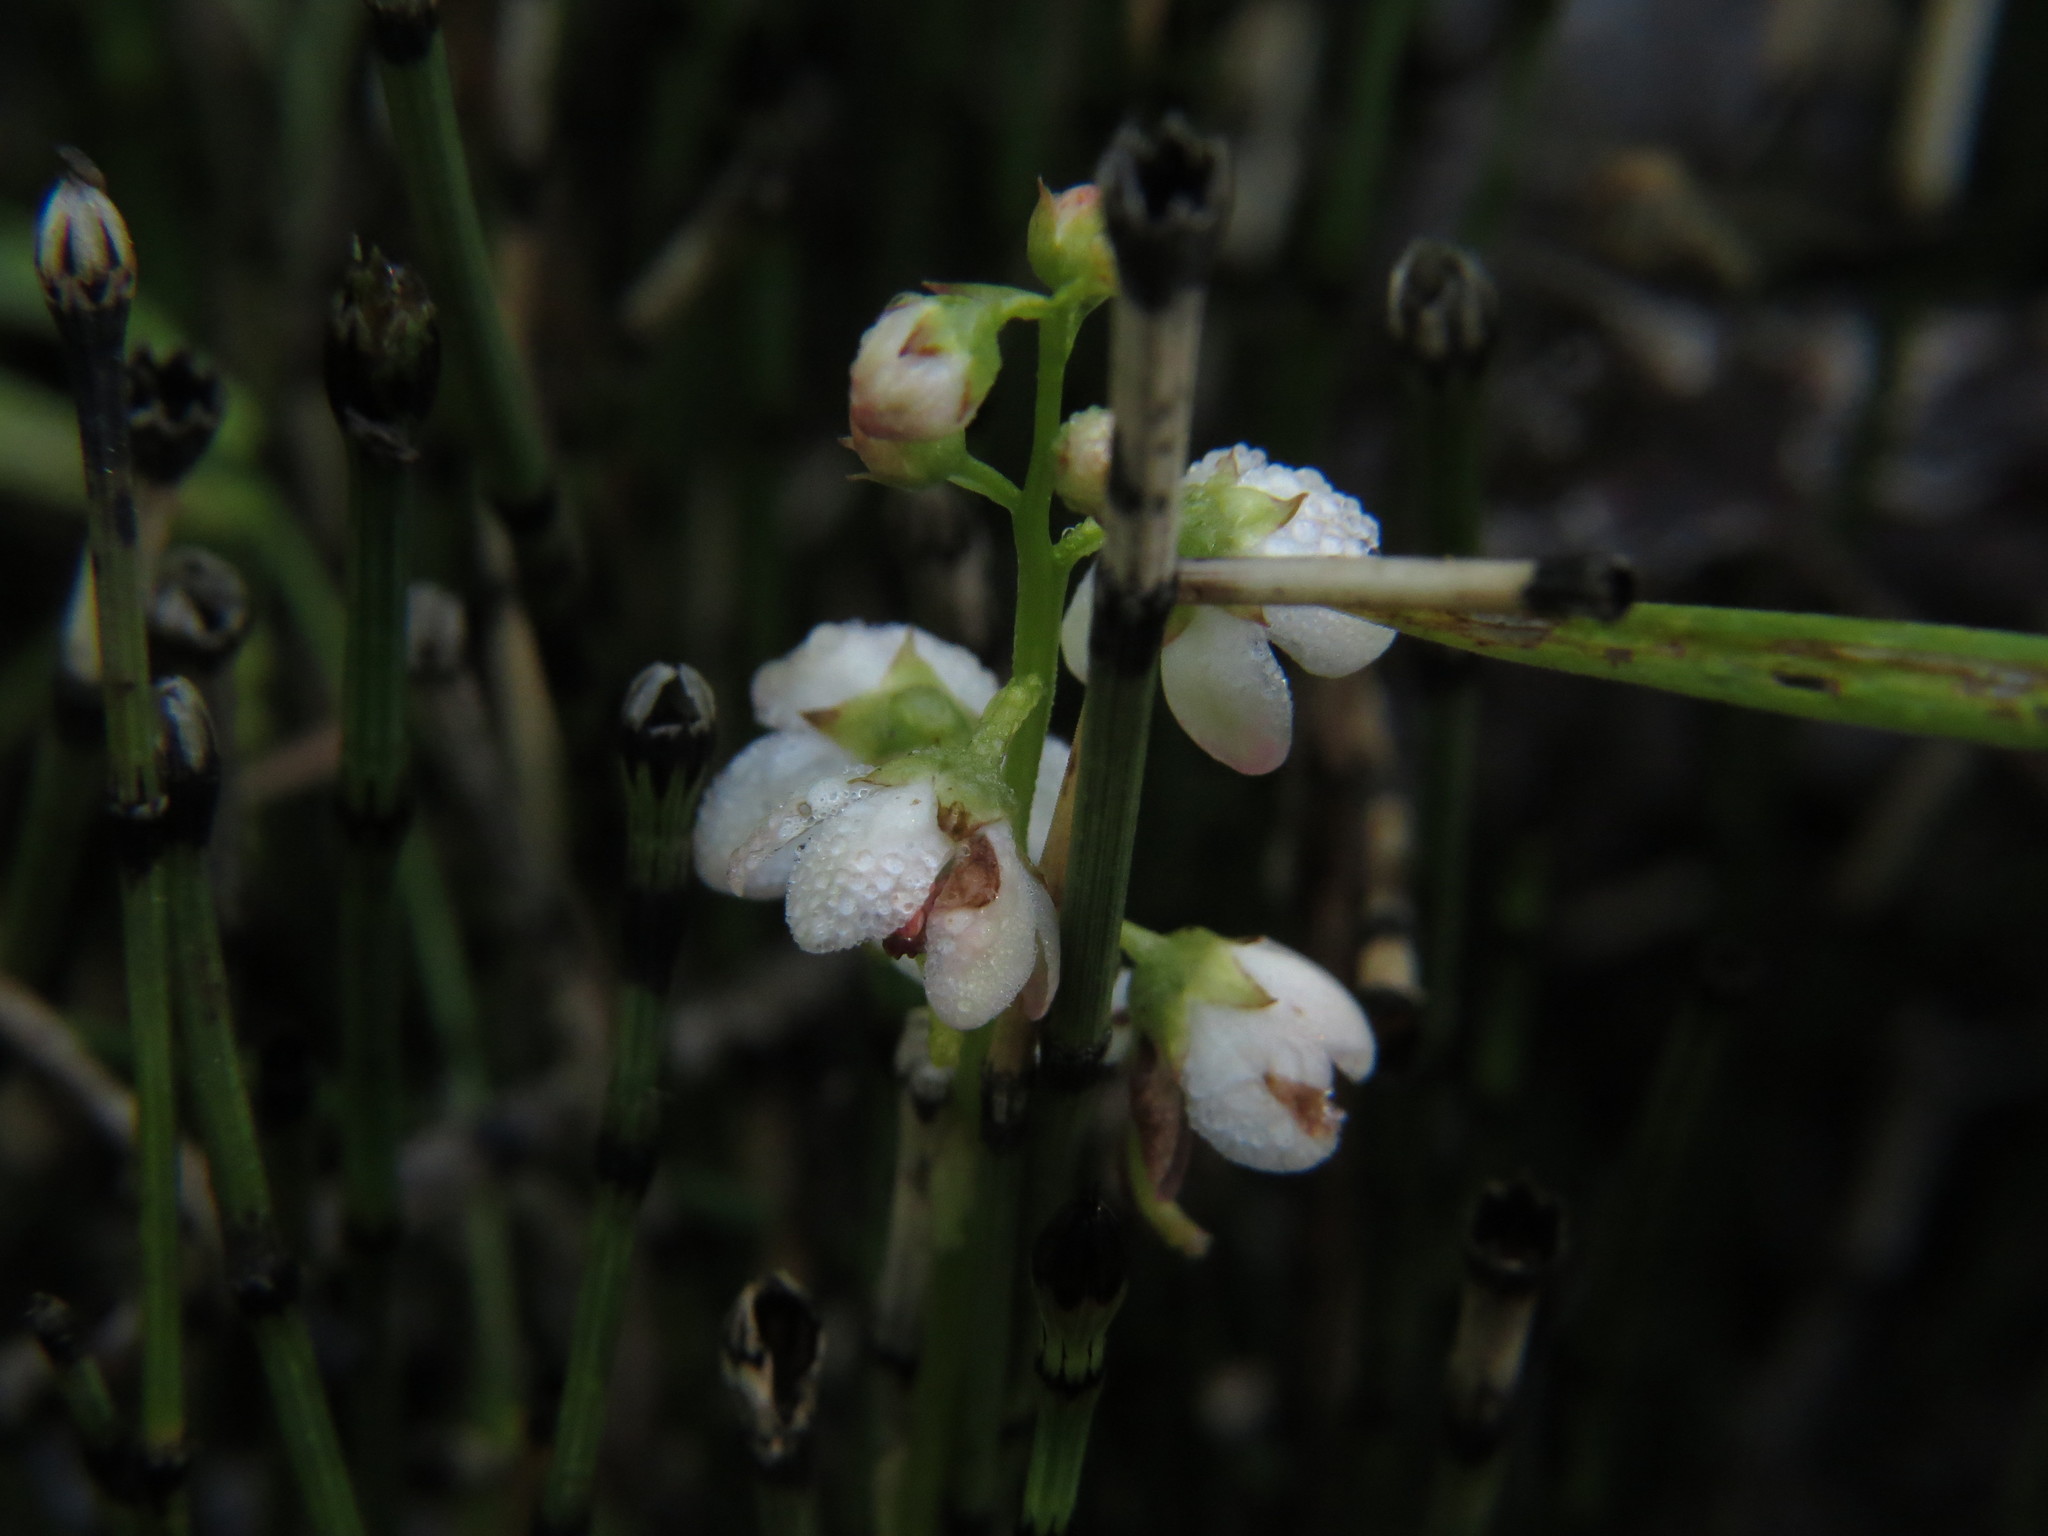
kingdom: Plantae
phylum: Tracheophyta
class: Magnoliopsida
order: Ericales
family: Ericaceae
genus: Pyrola
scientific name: Pyrola asarifolia
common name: Bog wintergreen
